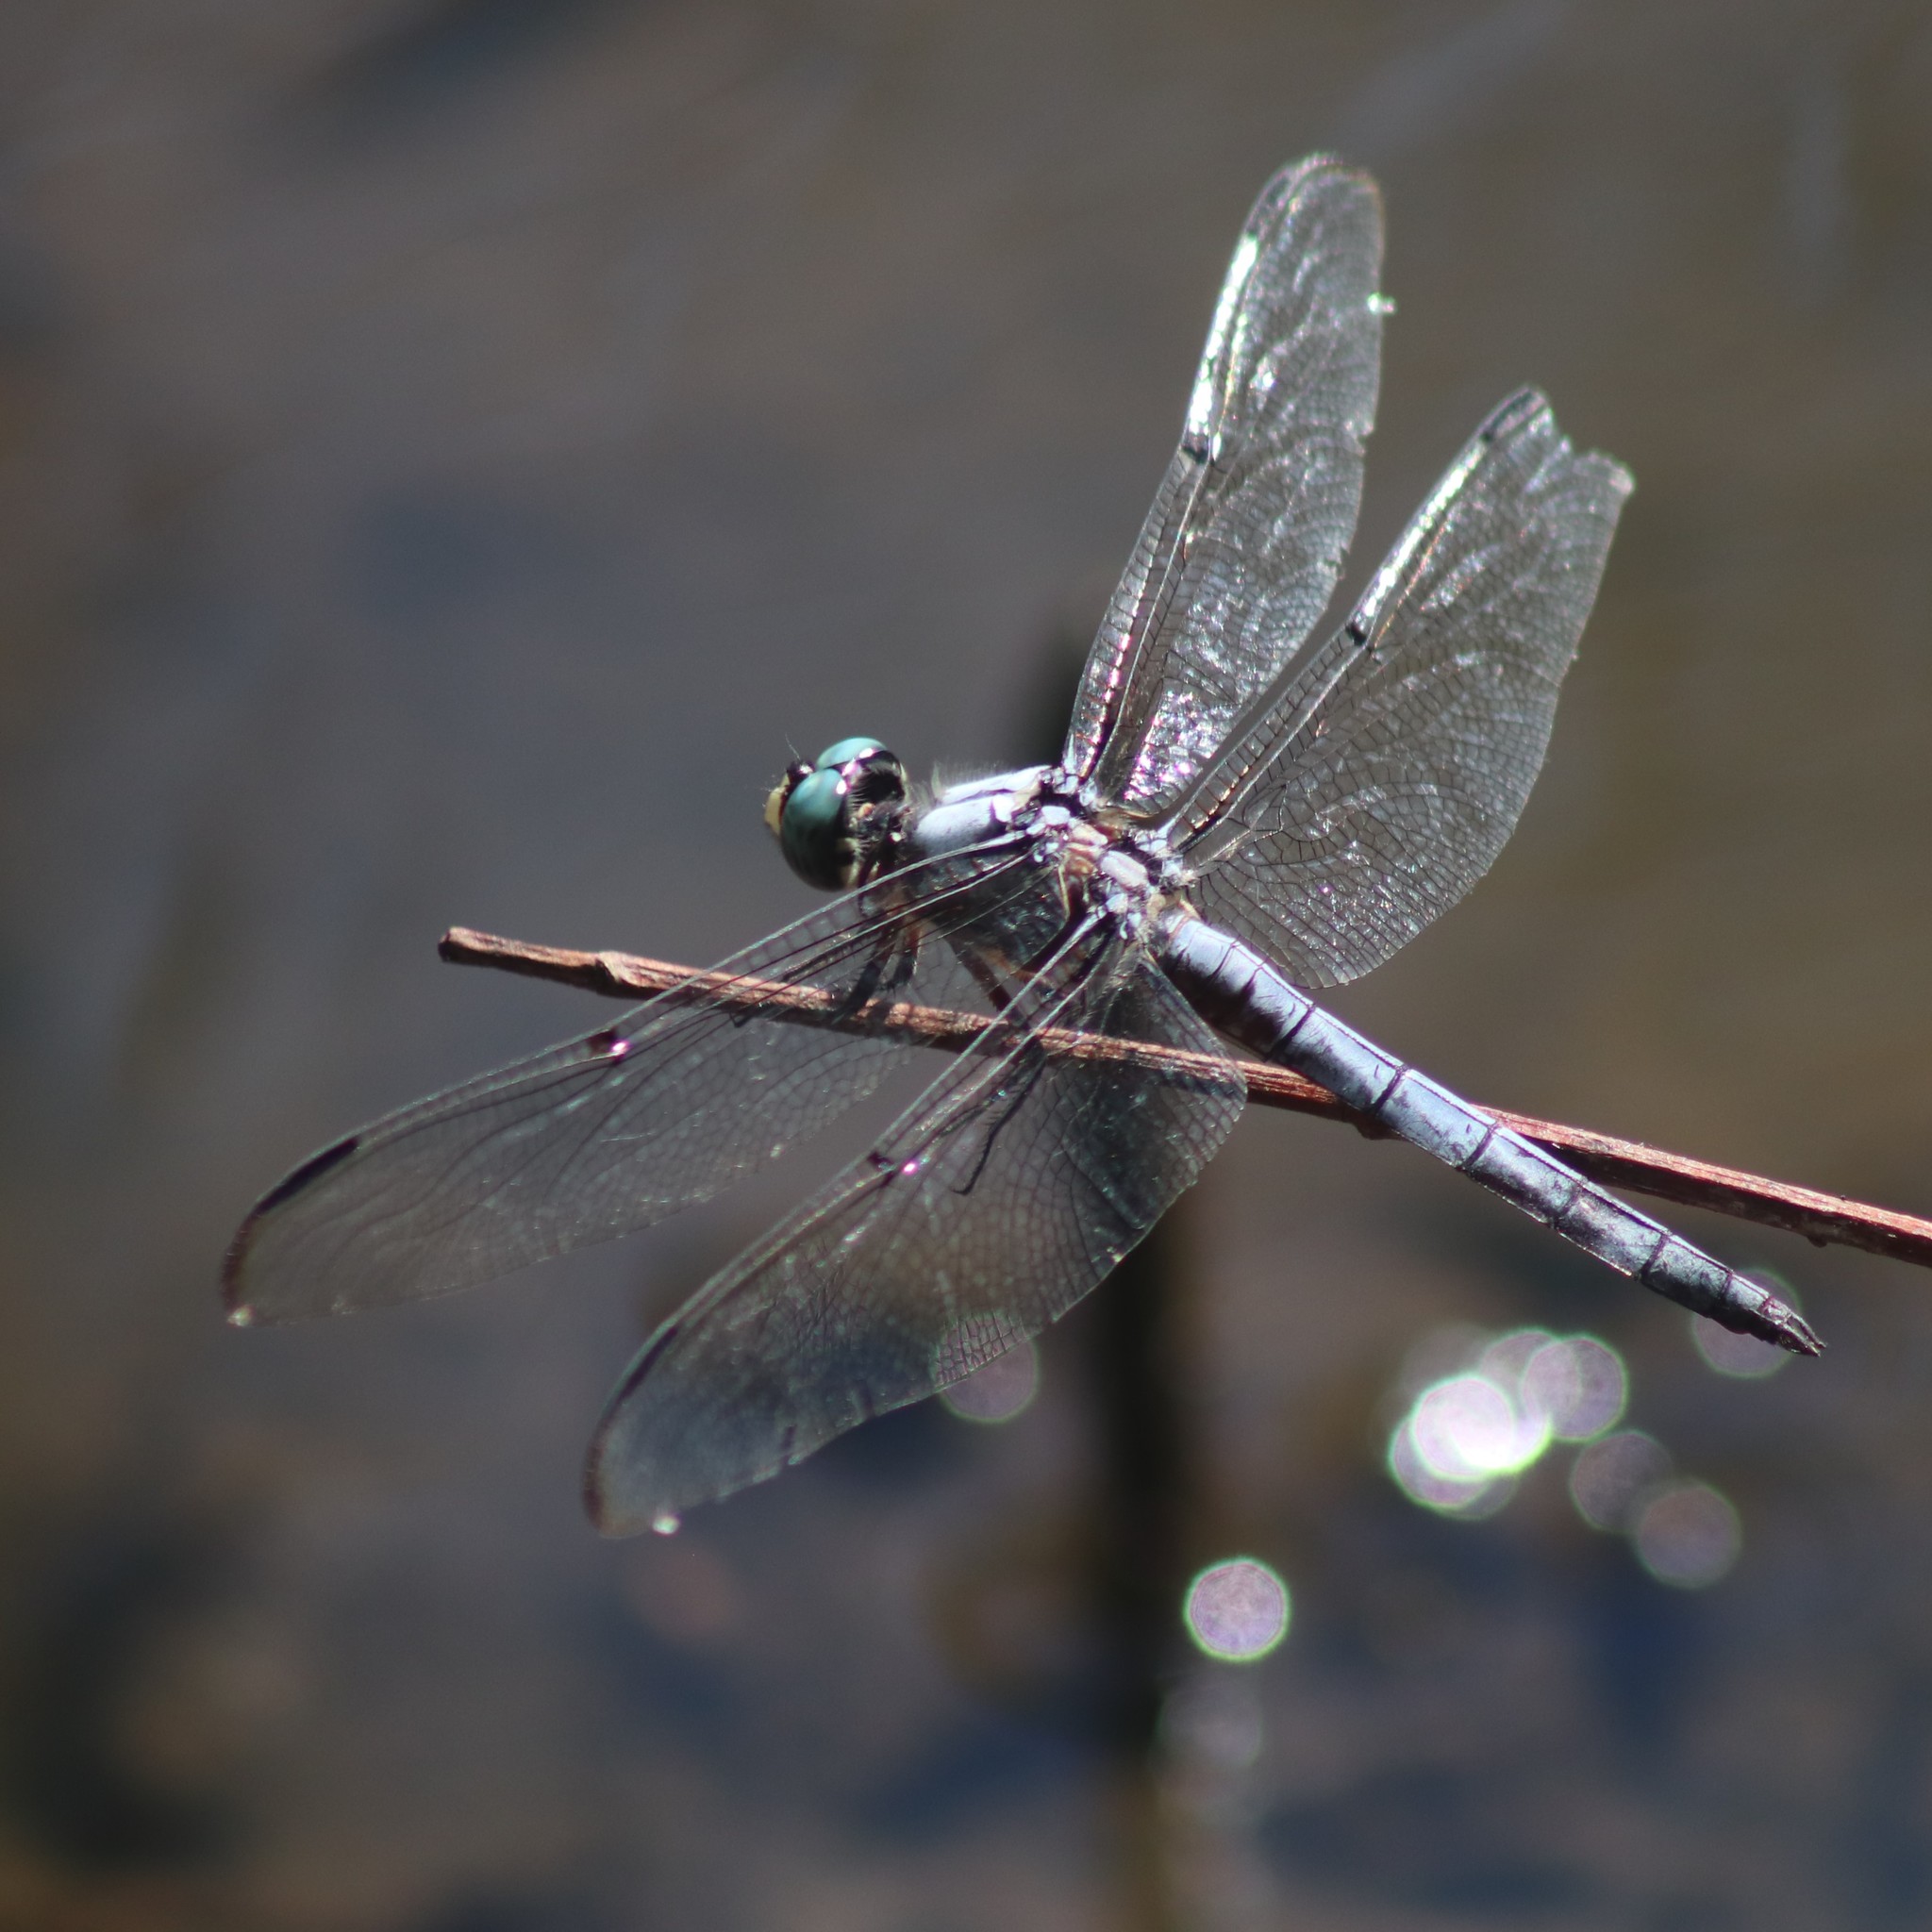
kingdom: Animalia
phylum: Arthropoda
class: Insecta
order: Odonata
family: Libellulidae
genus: Libellula
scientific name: Libellula vibrans
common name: Great blue skimmer
